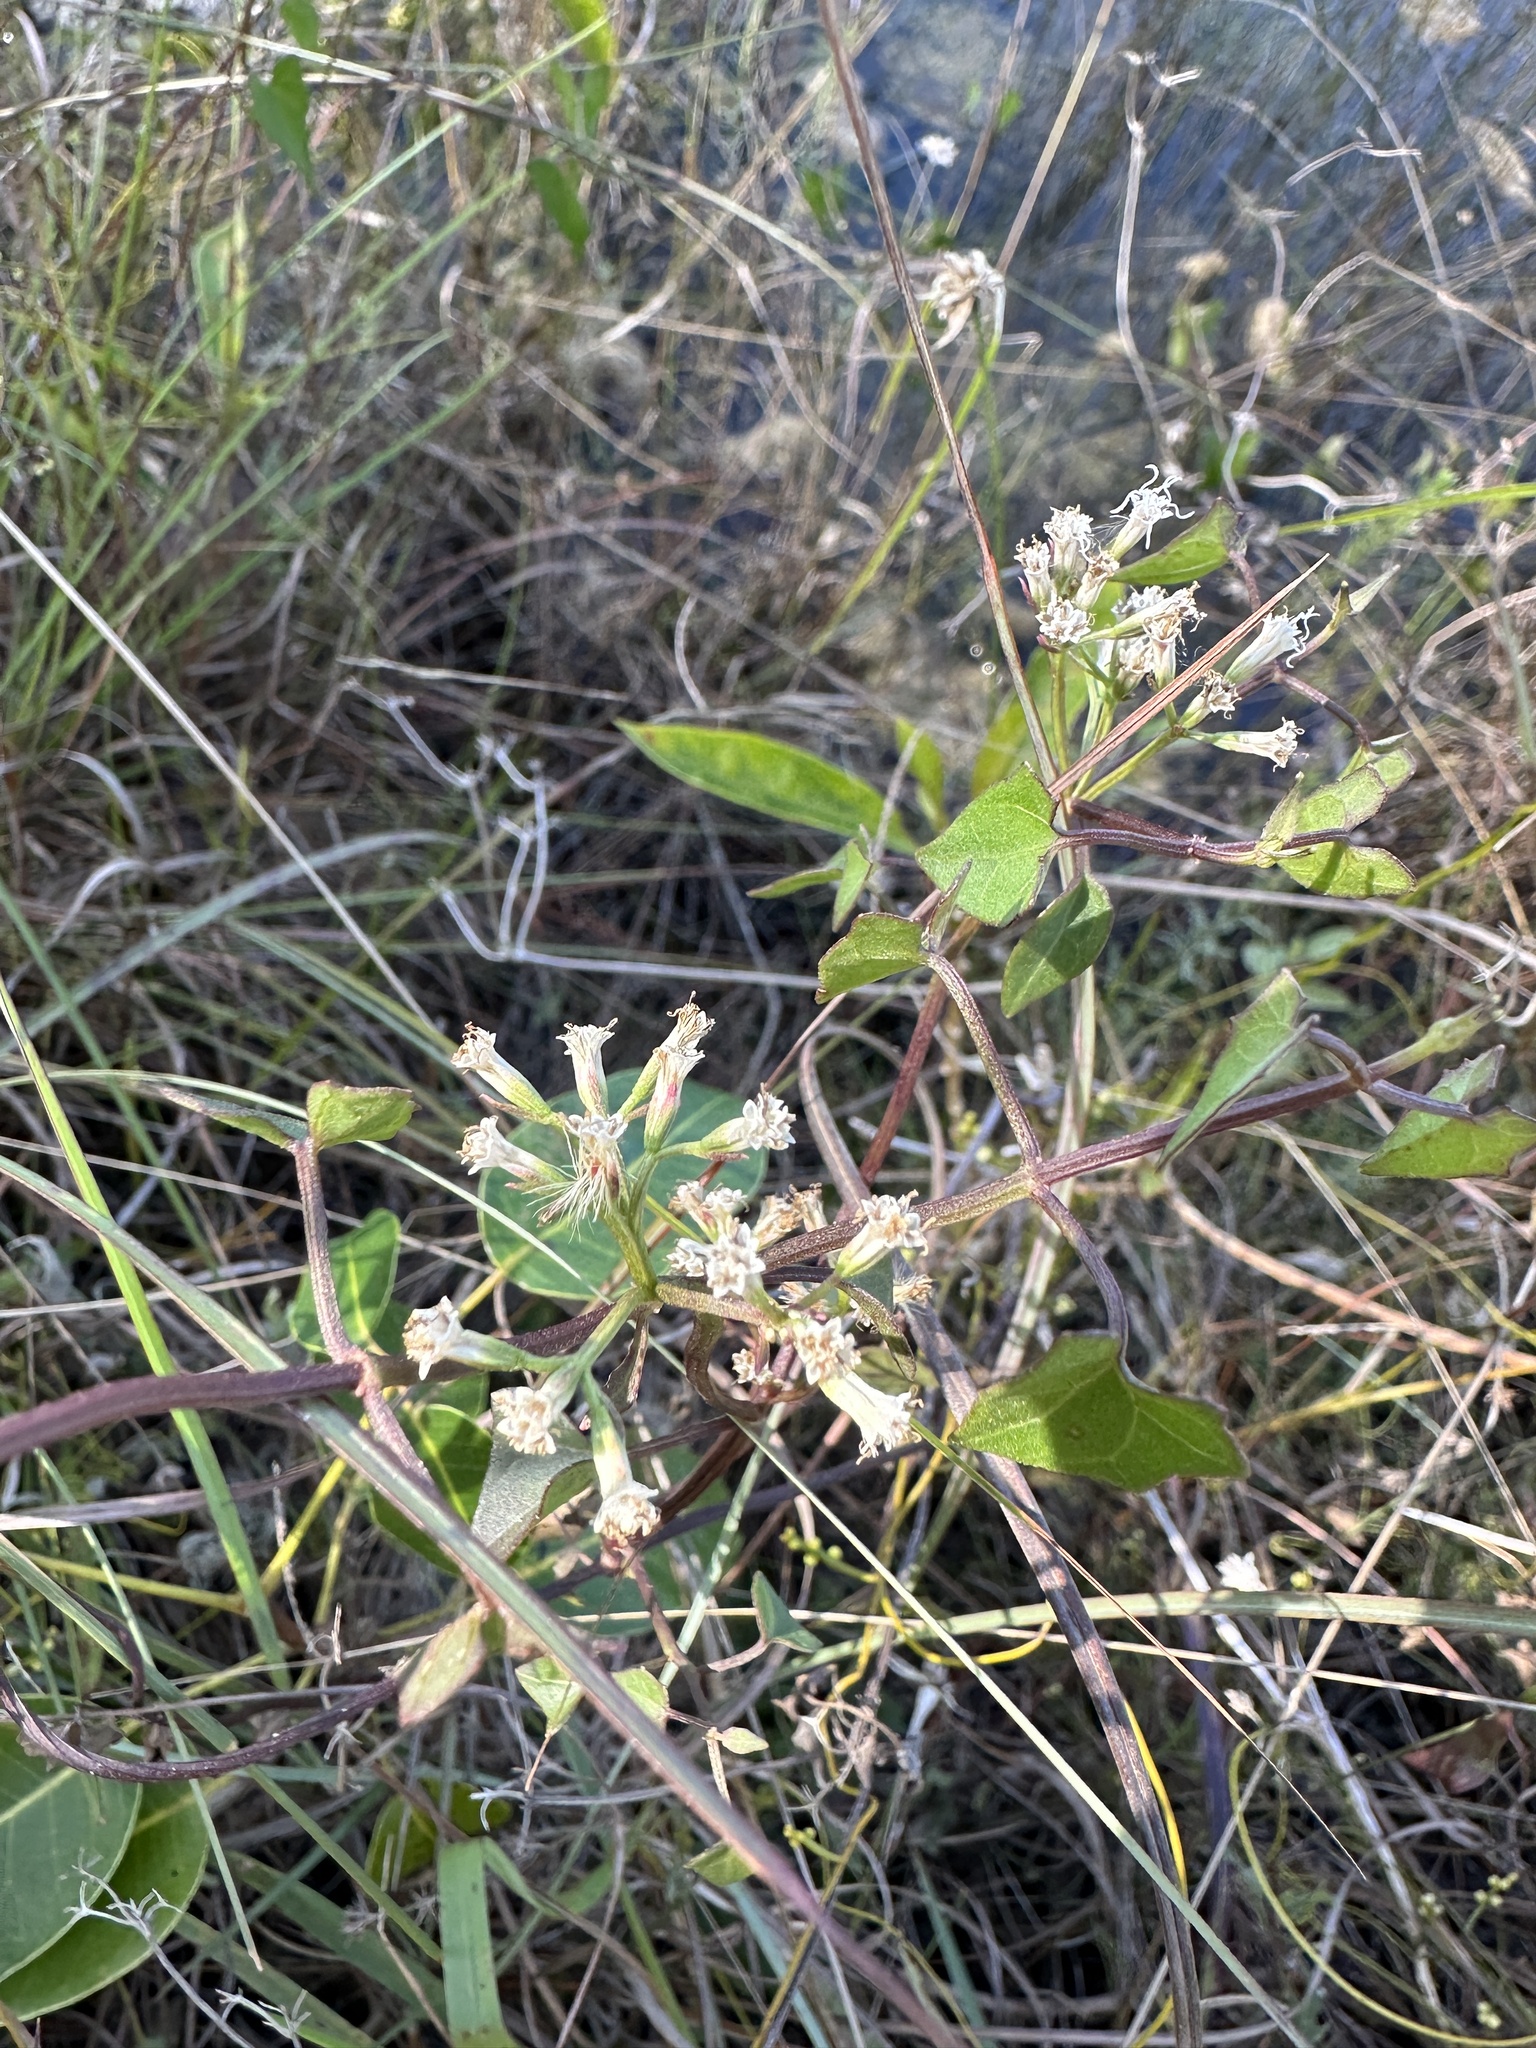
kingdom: Plantae
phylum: Tracheophyta
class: Magnoliopsida
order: Asterales
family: Asteraceae
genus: Mikania
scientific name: Mikania scandens
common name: Climbing hempvine
